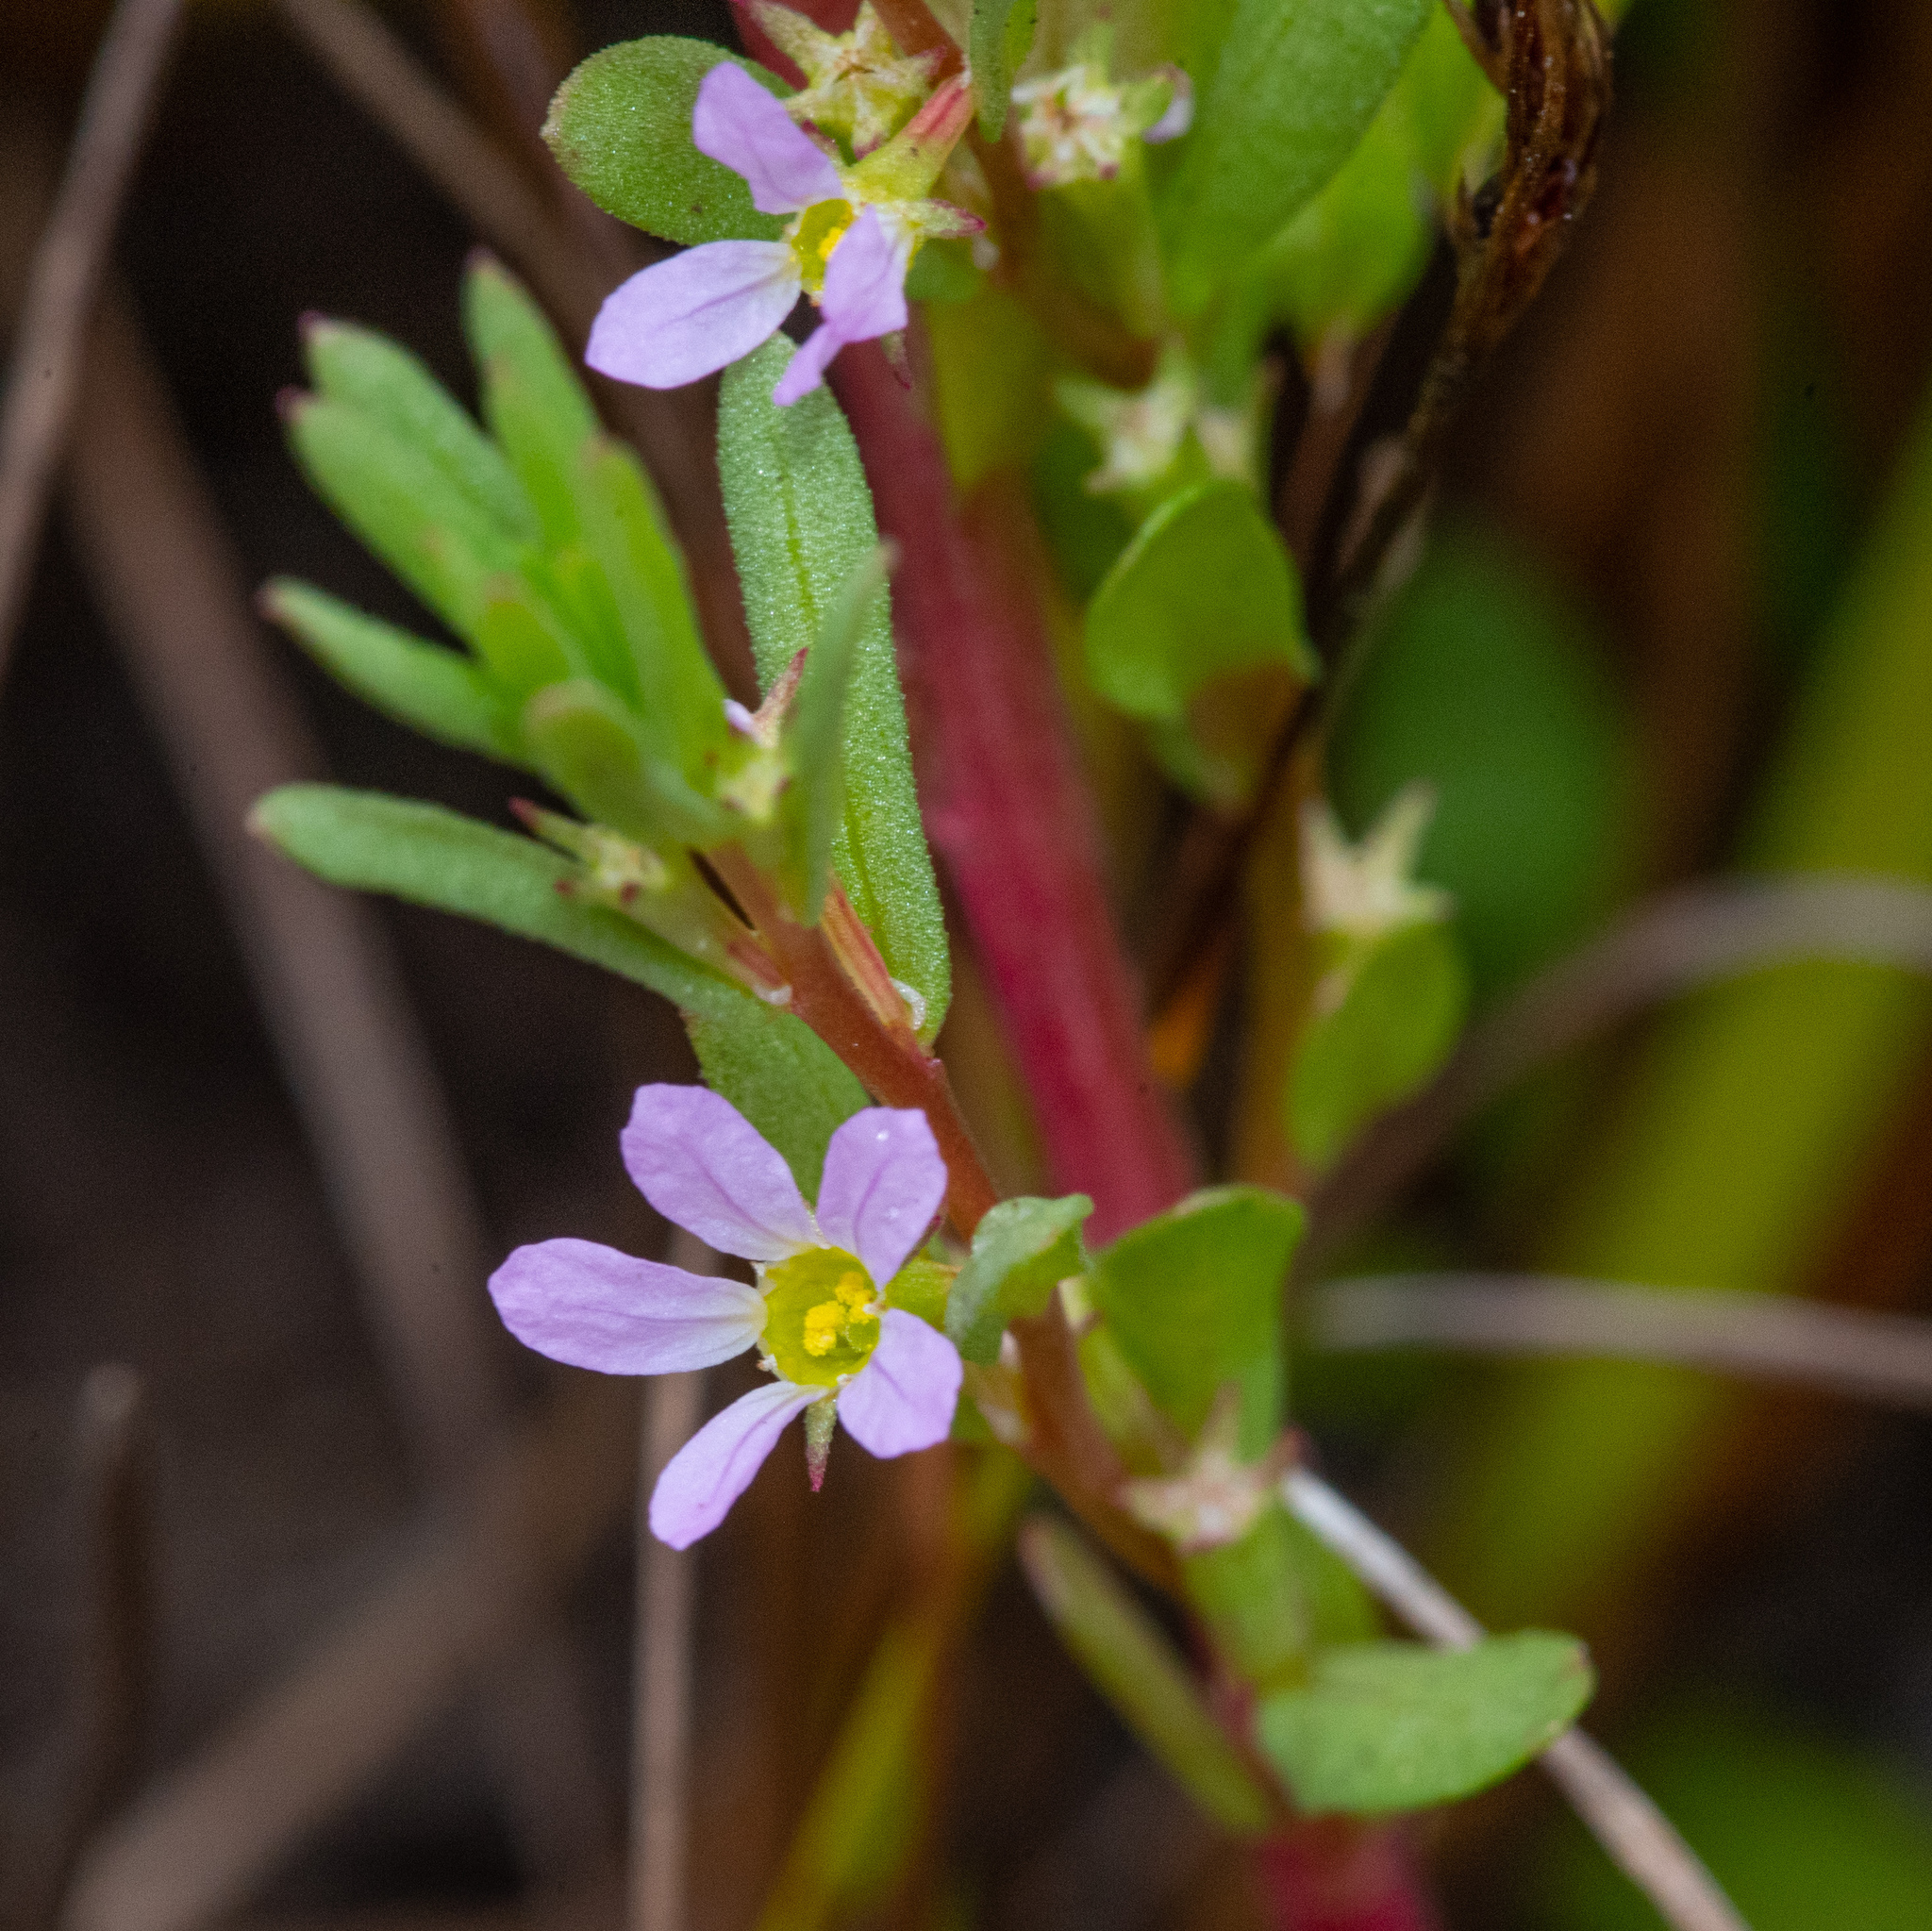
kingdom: Plantae
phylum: Tracheophyta
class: Magnoliopsida
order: Myrtales
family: Lythraceae
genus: Lythrum
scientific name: Lythrum hyssopifolia
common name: Grass-poly
